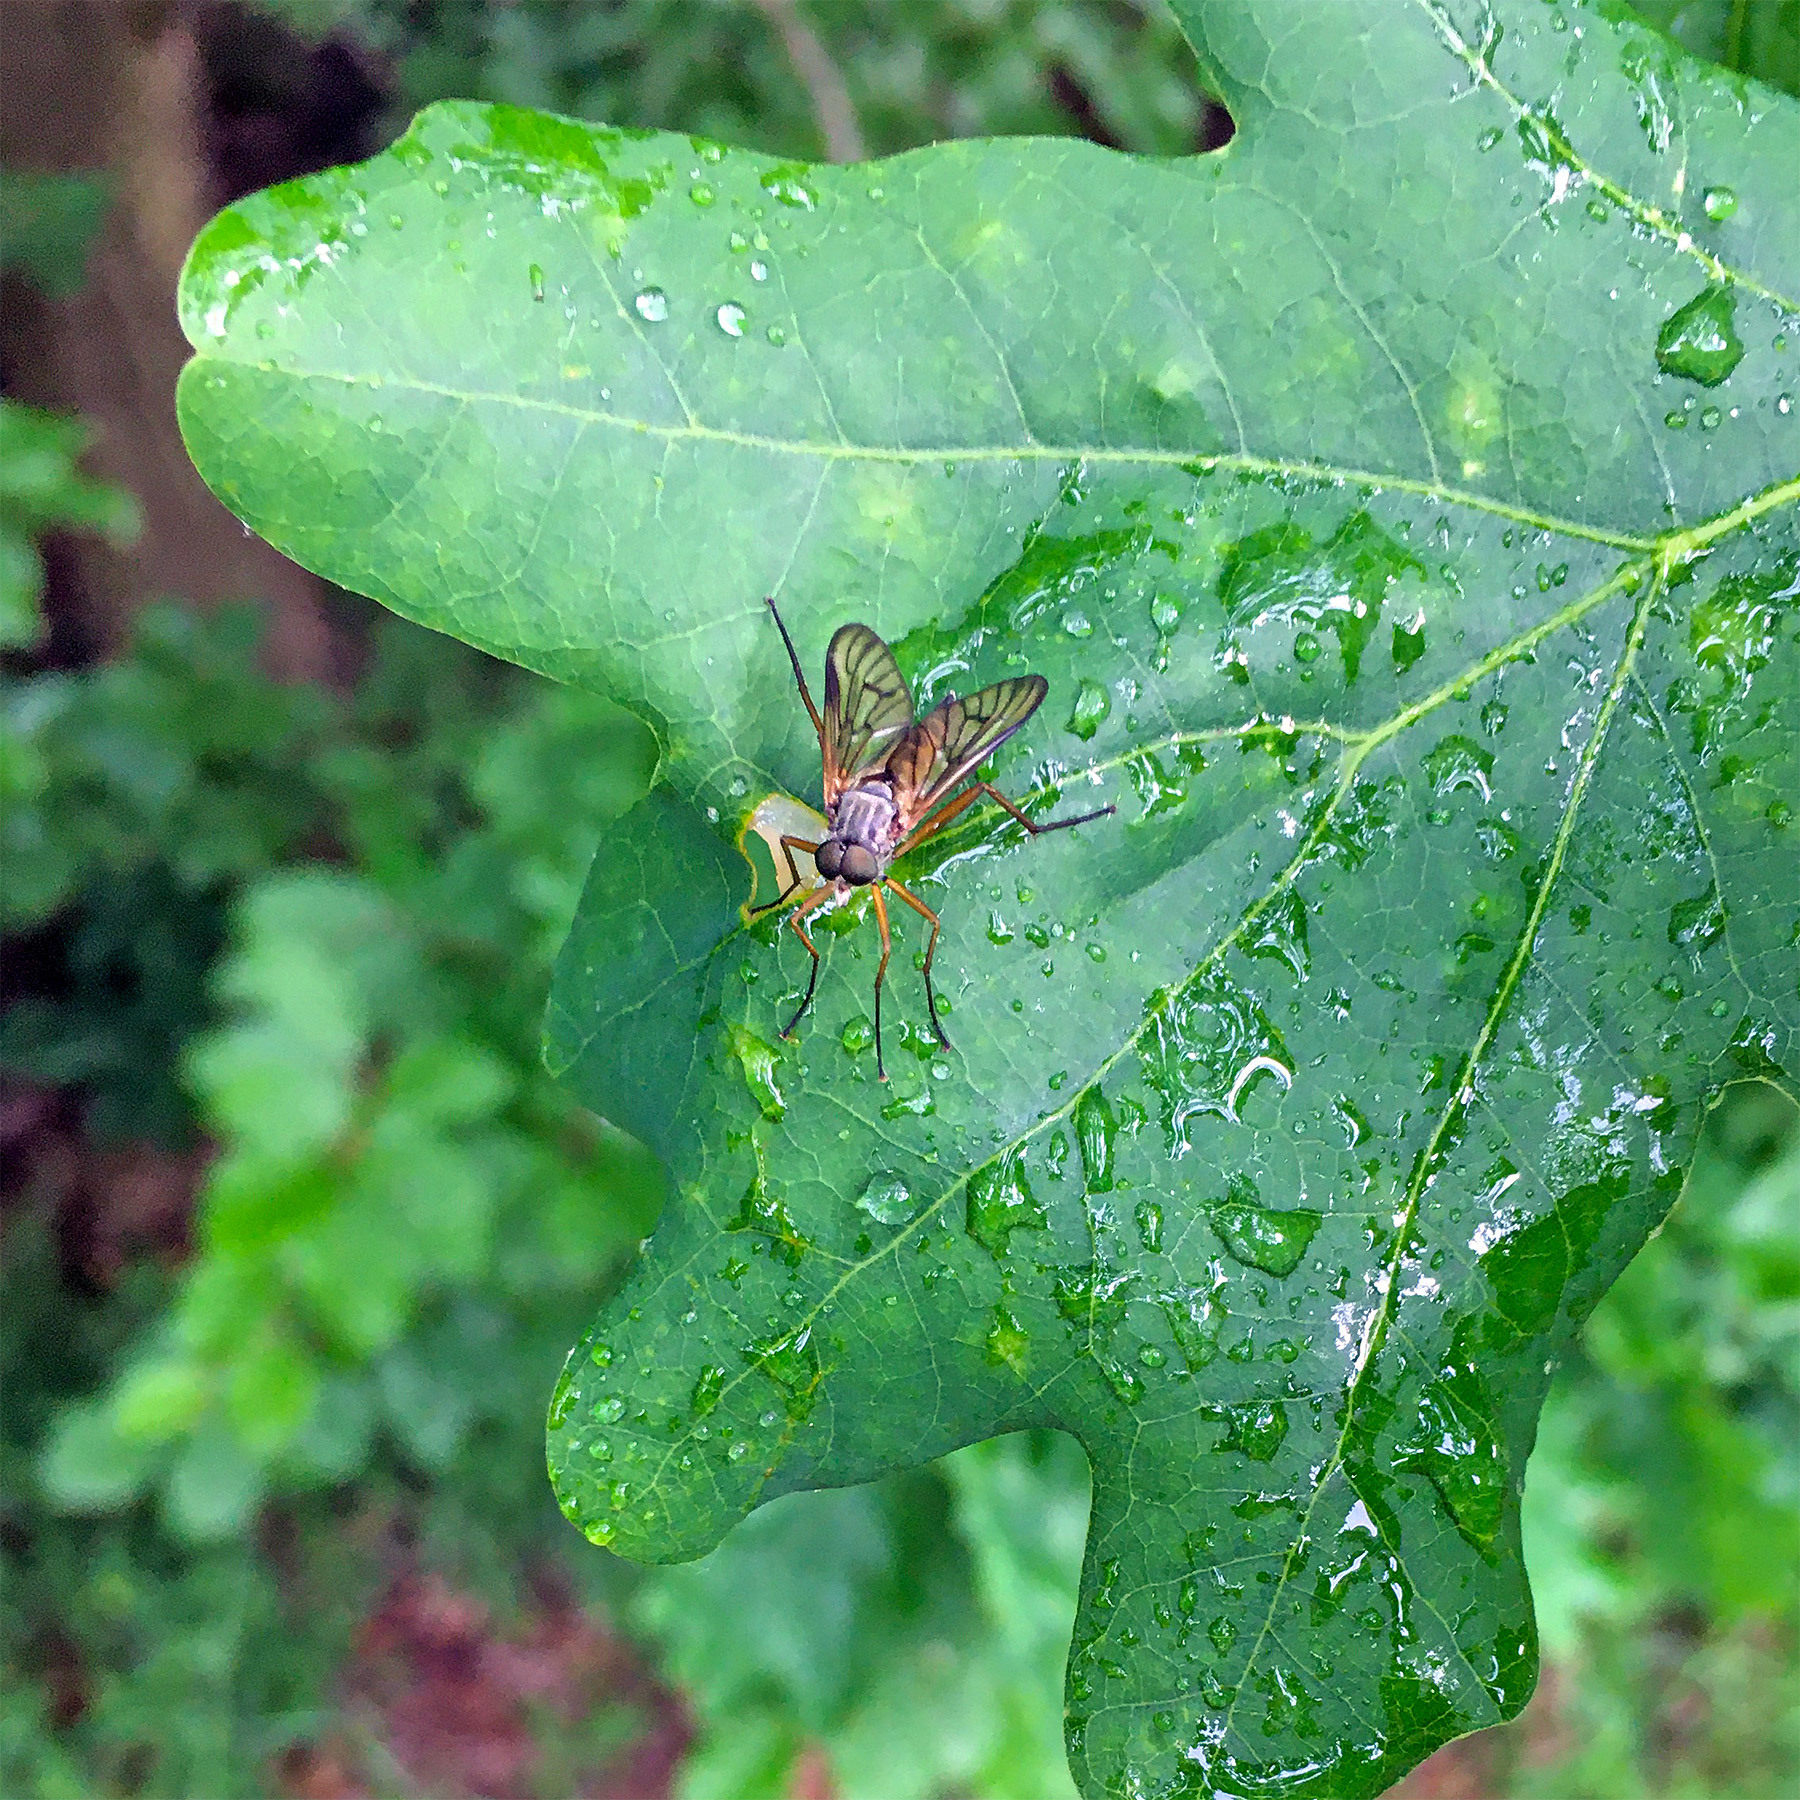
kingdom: Animalia
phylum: Arthropoda
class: Insecta
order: Diptera
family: Rhagionidae
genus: Rhagio
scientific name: Rhagio vitripennis
